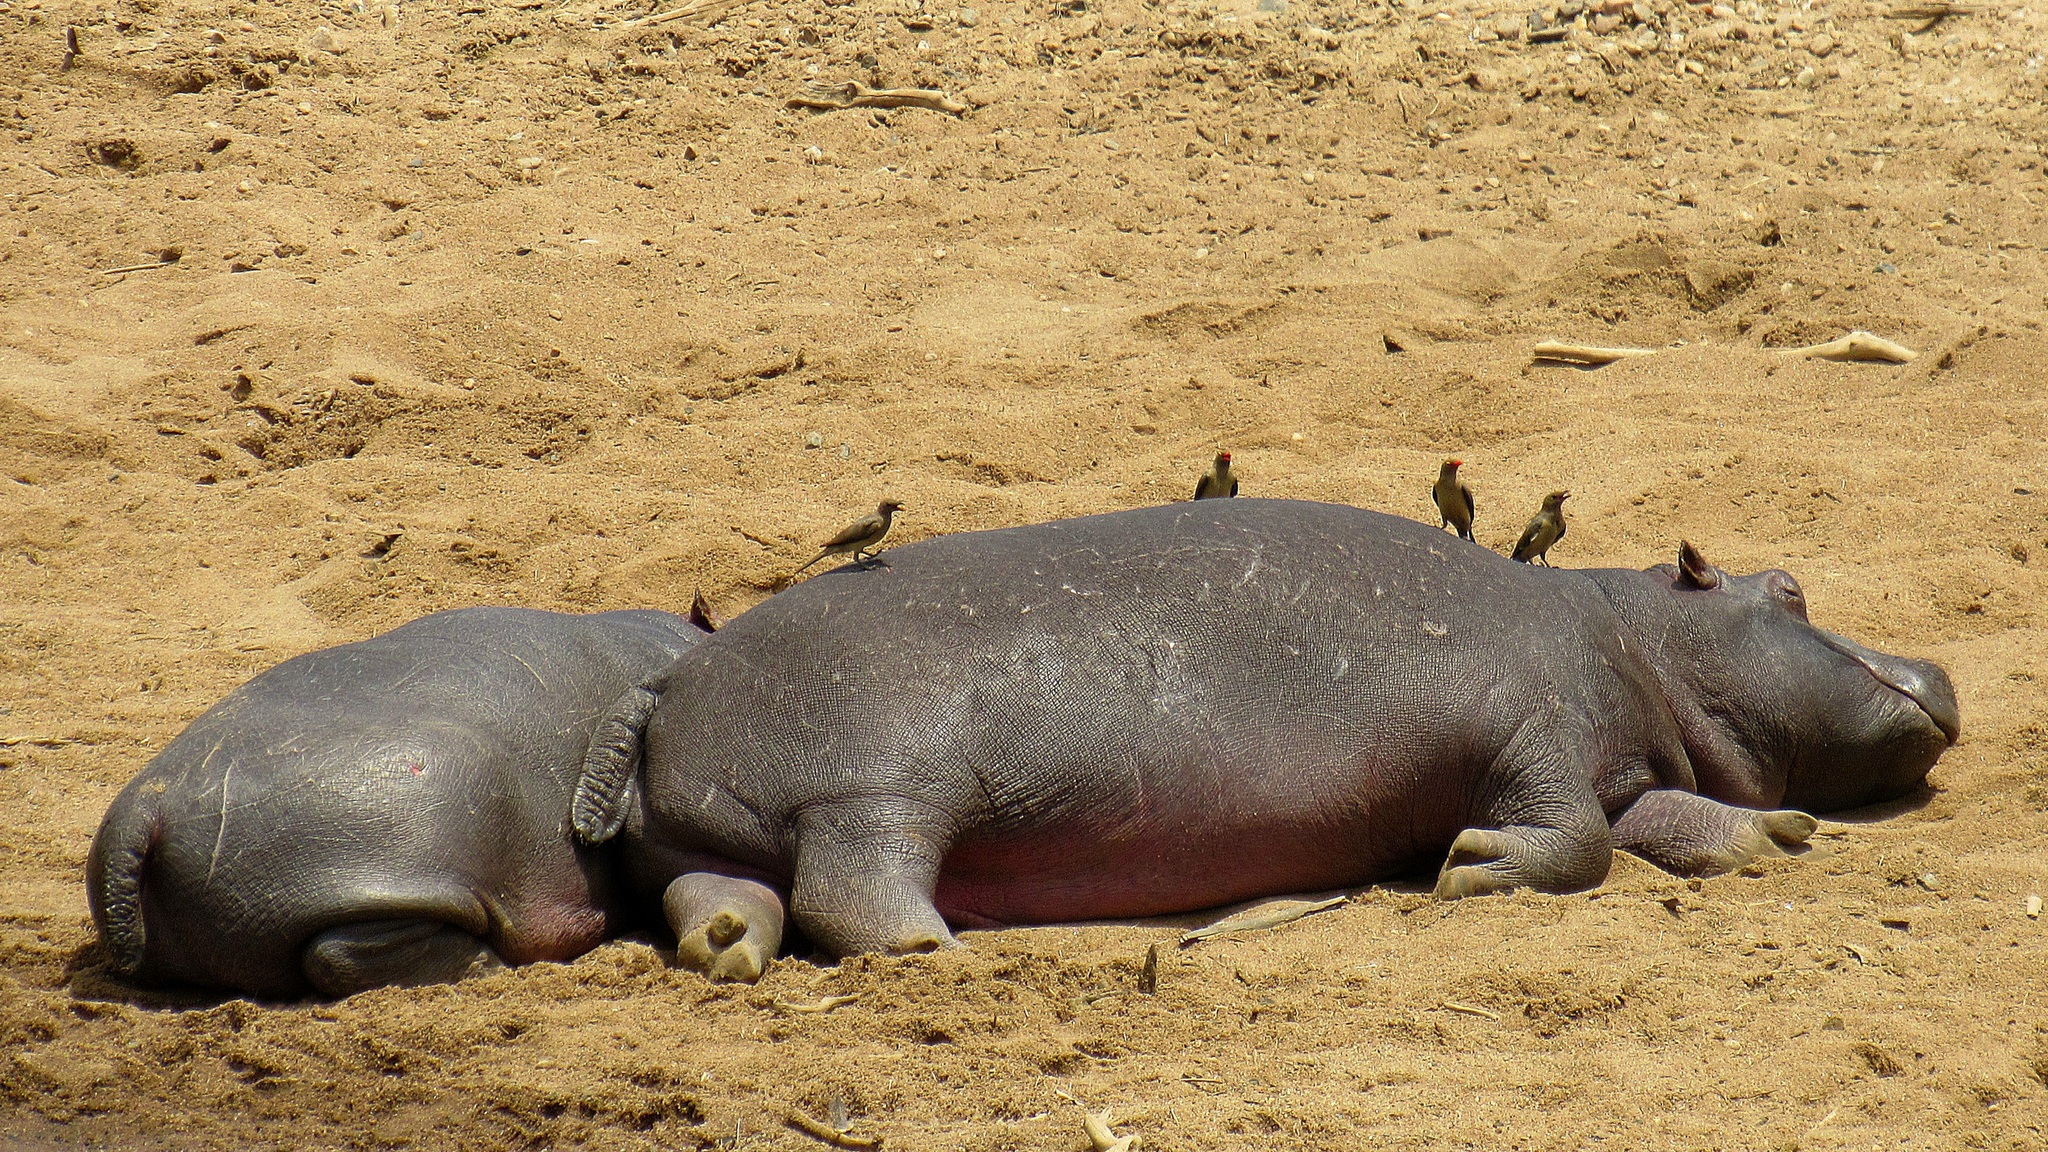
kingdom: Animalia
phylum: Chordata
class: Mammalia
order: Artiodactyla
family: Hippopotamidae
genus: Hippopotamus
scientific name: Hippopotamus amphibius
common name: Common hippopotamus
